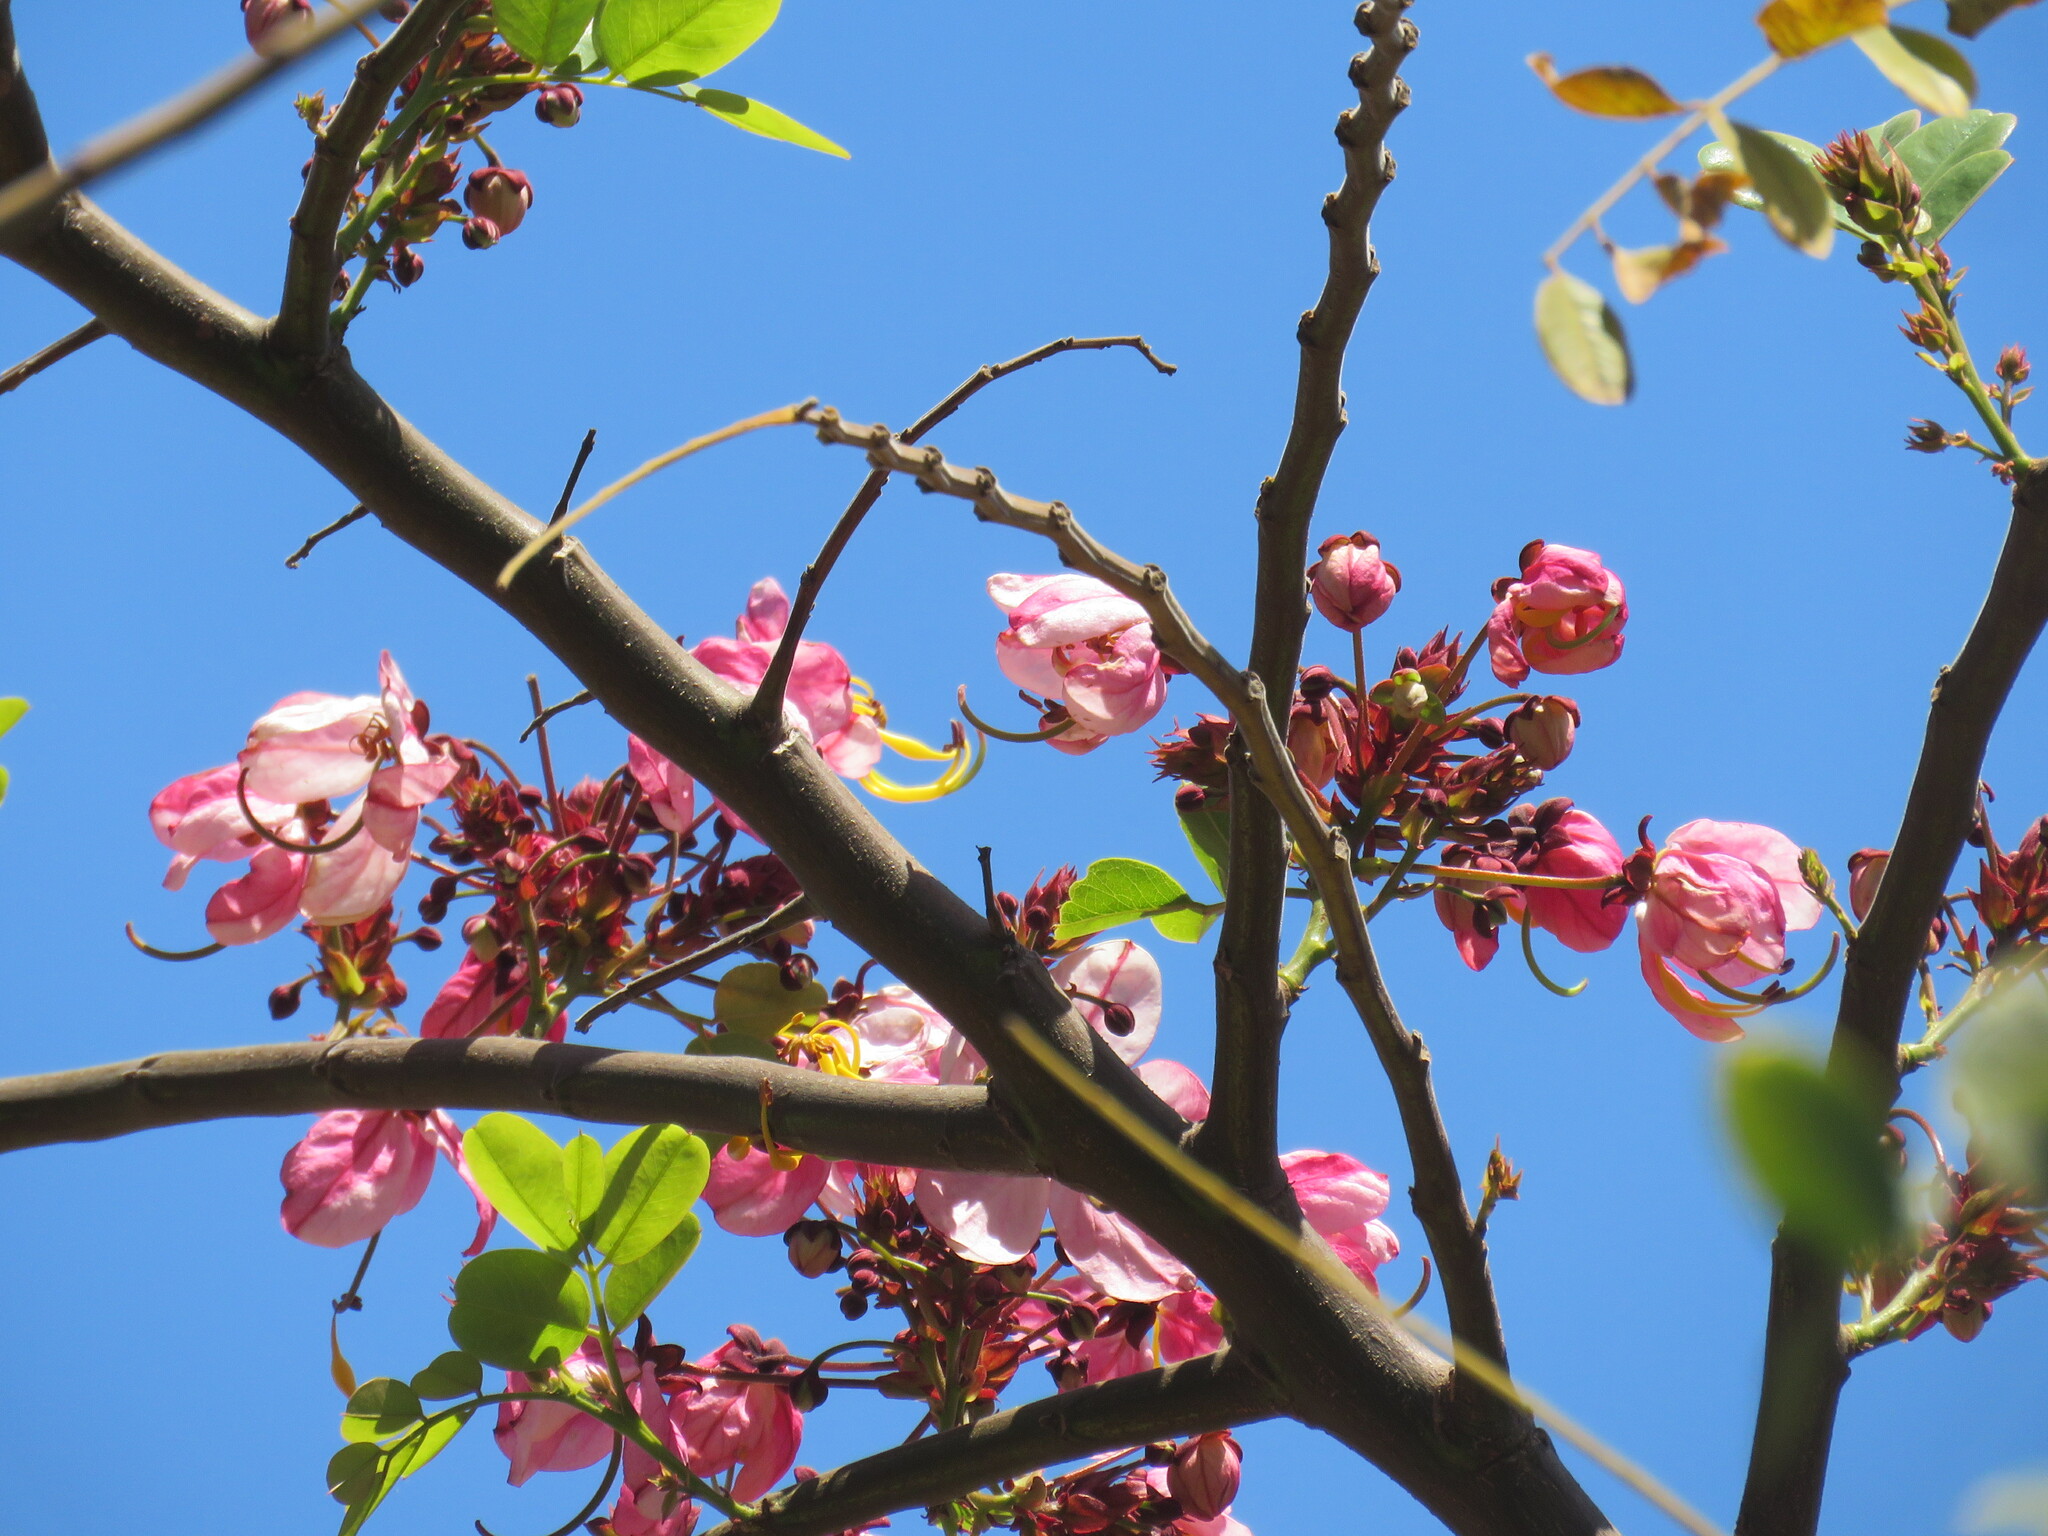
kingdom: Plantae
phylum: Tracheophyta
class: Magnoliopsida
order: Fabales
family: Fabaceae
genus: Cassia
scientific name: Cassia javanica
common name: Apple blossom
